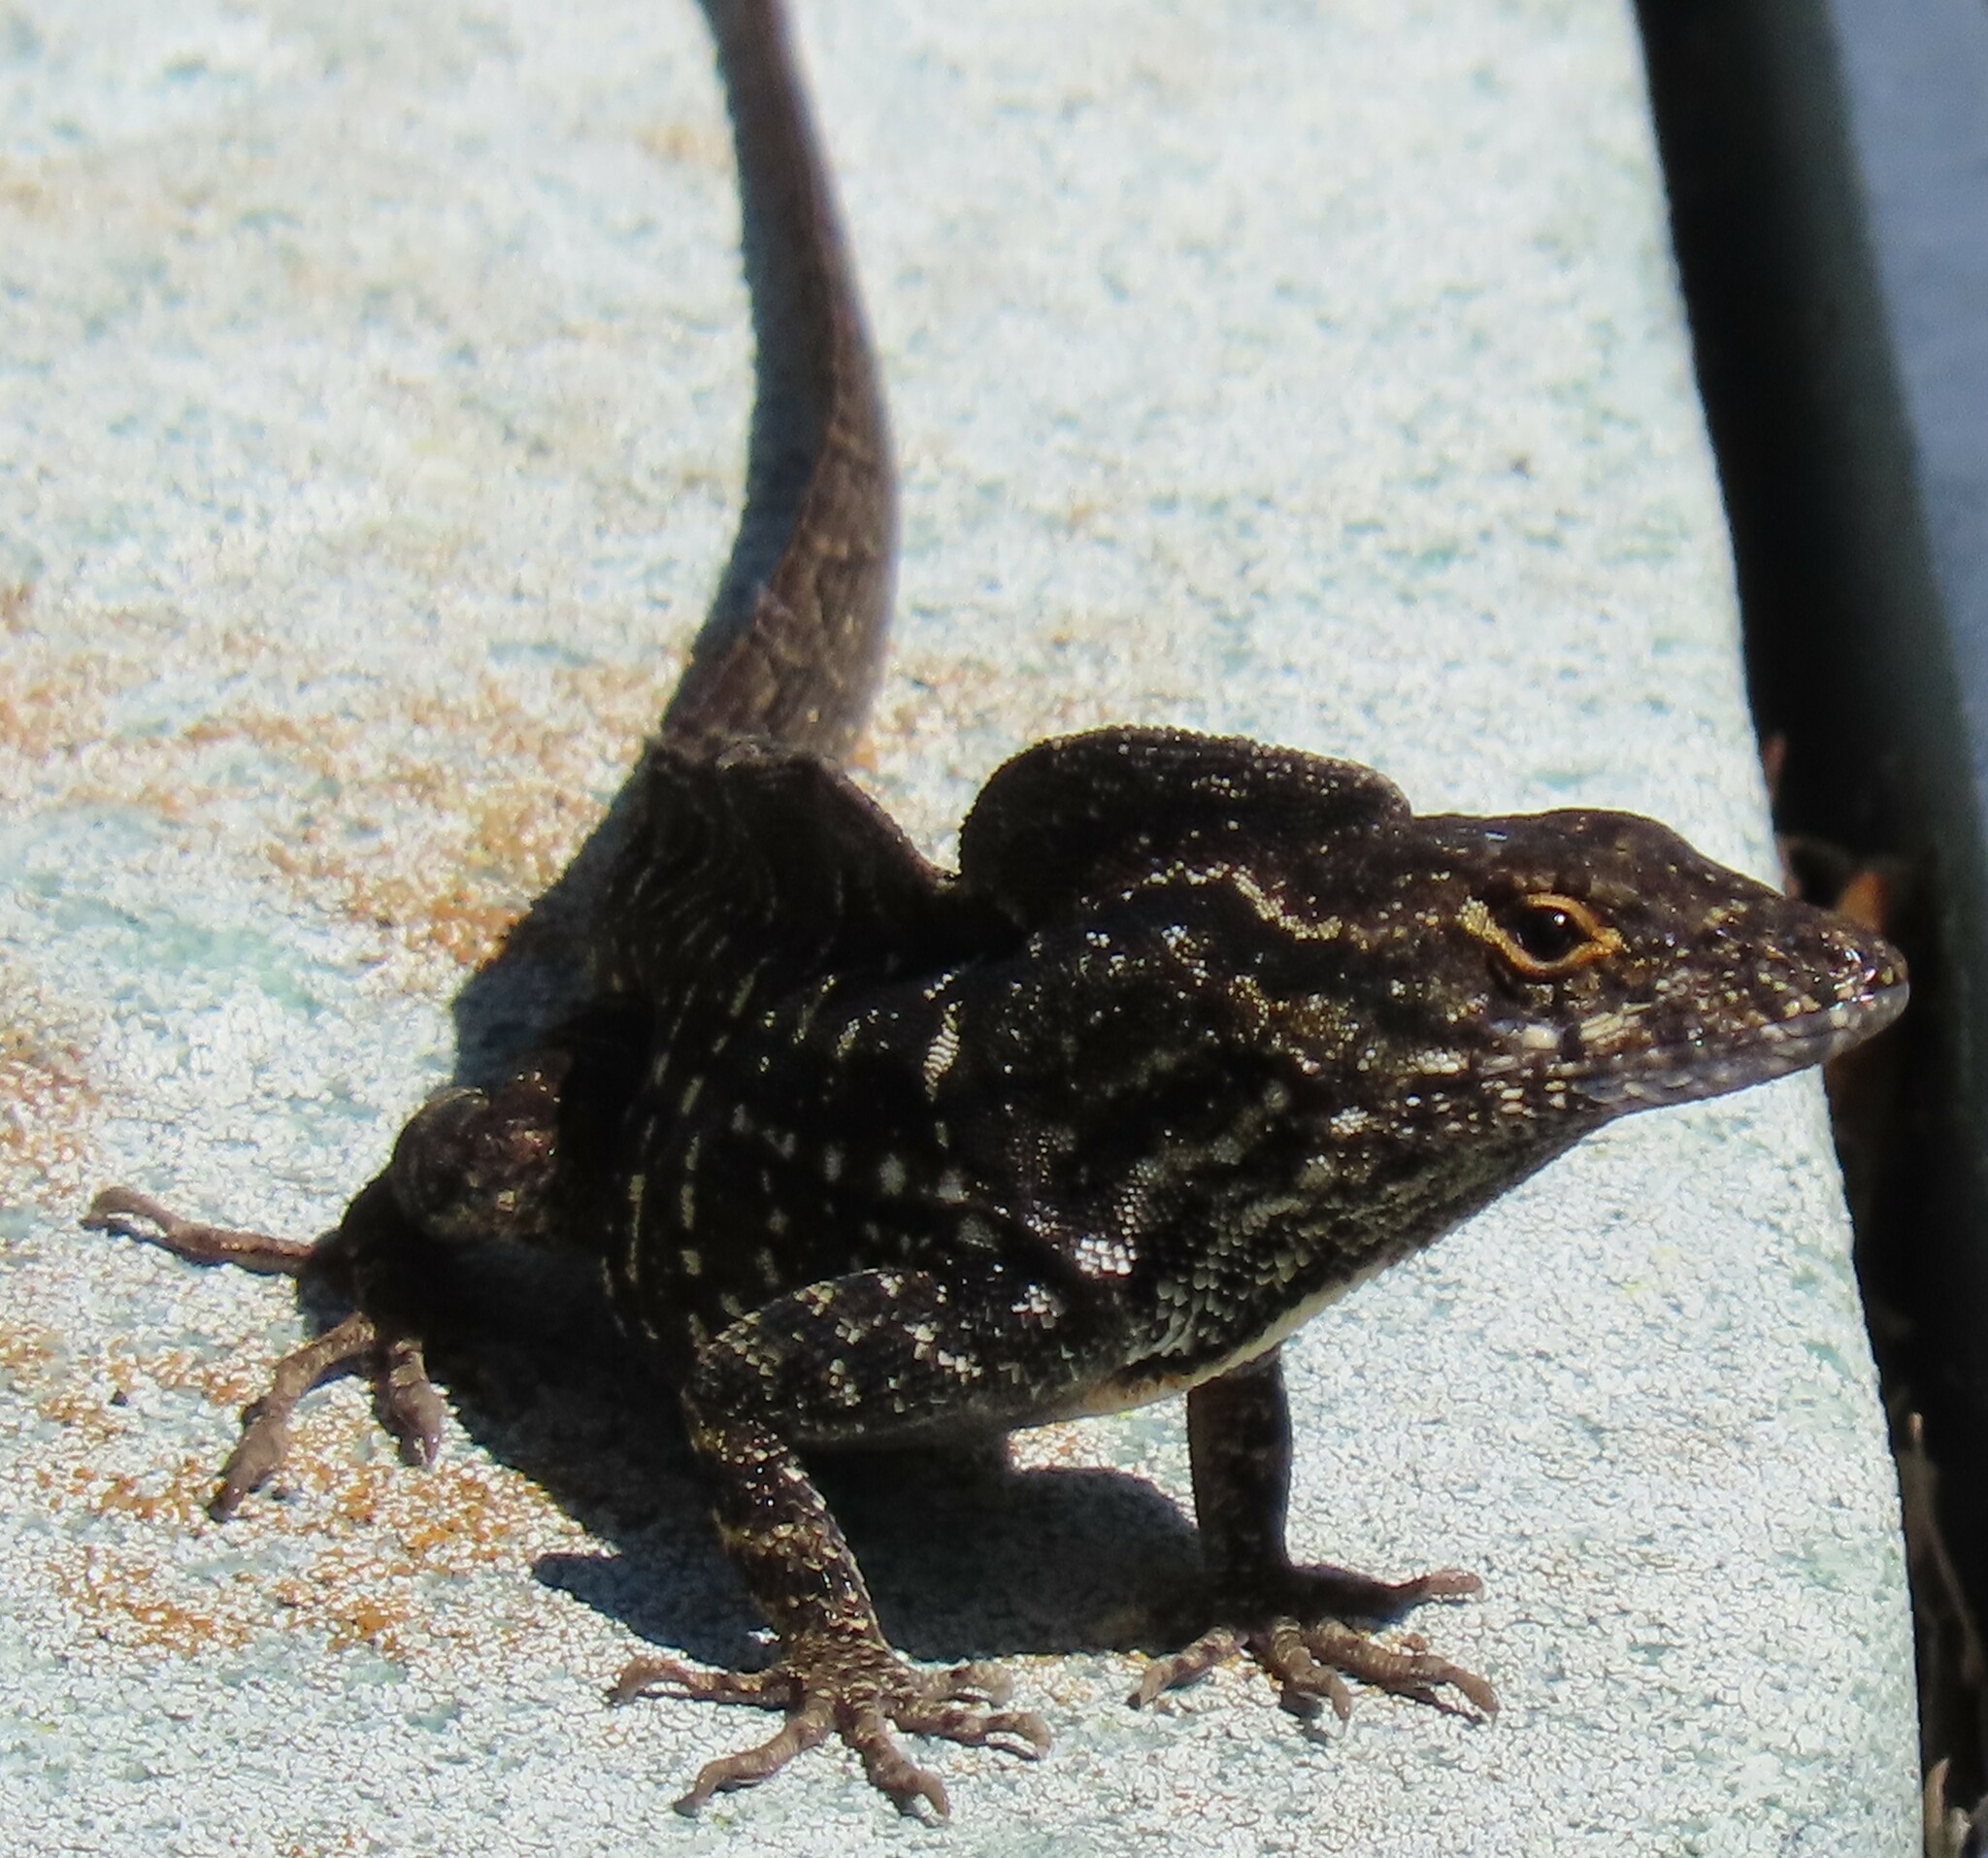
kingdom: Animalia
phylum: Chordata
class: Squamata
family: Dactyloidae
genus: Anolis
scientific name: Anolis sagrei
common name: Brown anole
